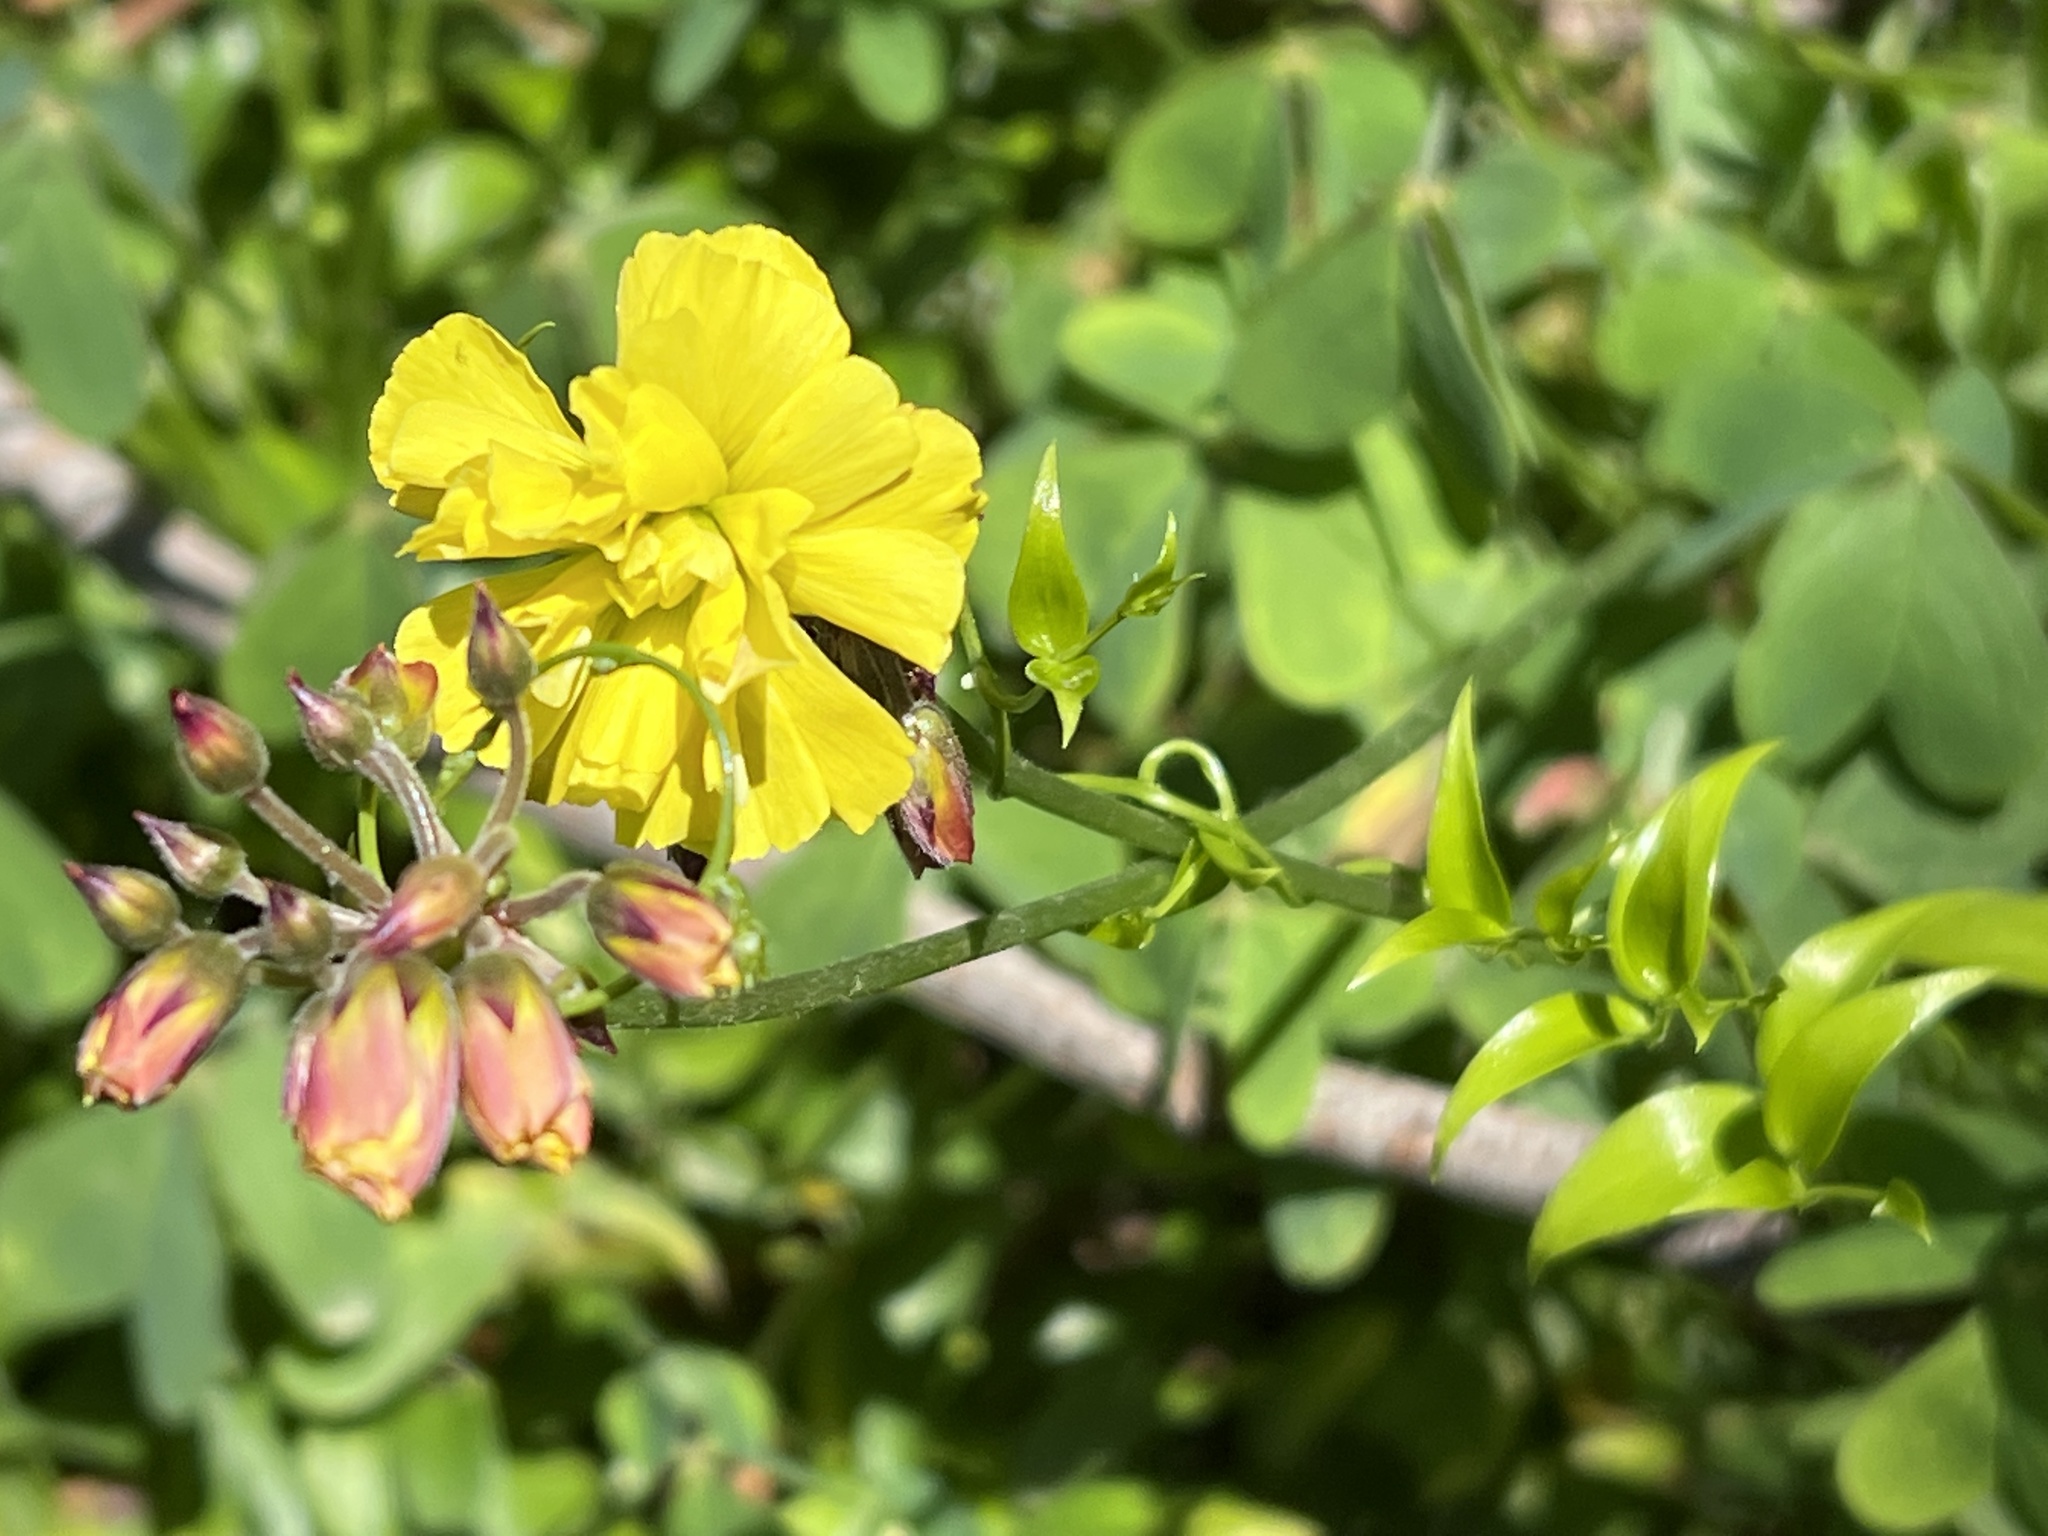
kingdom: Plantae
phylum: Tracheophyta
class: Magnoliopsida
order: Oxalidales
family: Oxalidaceae
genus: Oxalis
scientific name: Oxalis pes-caprae
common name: Bermuda-buttercup
